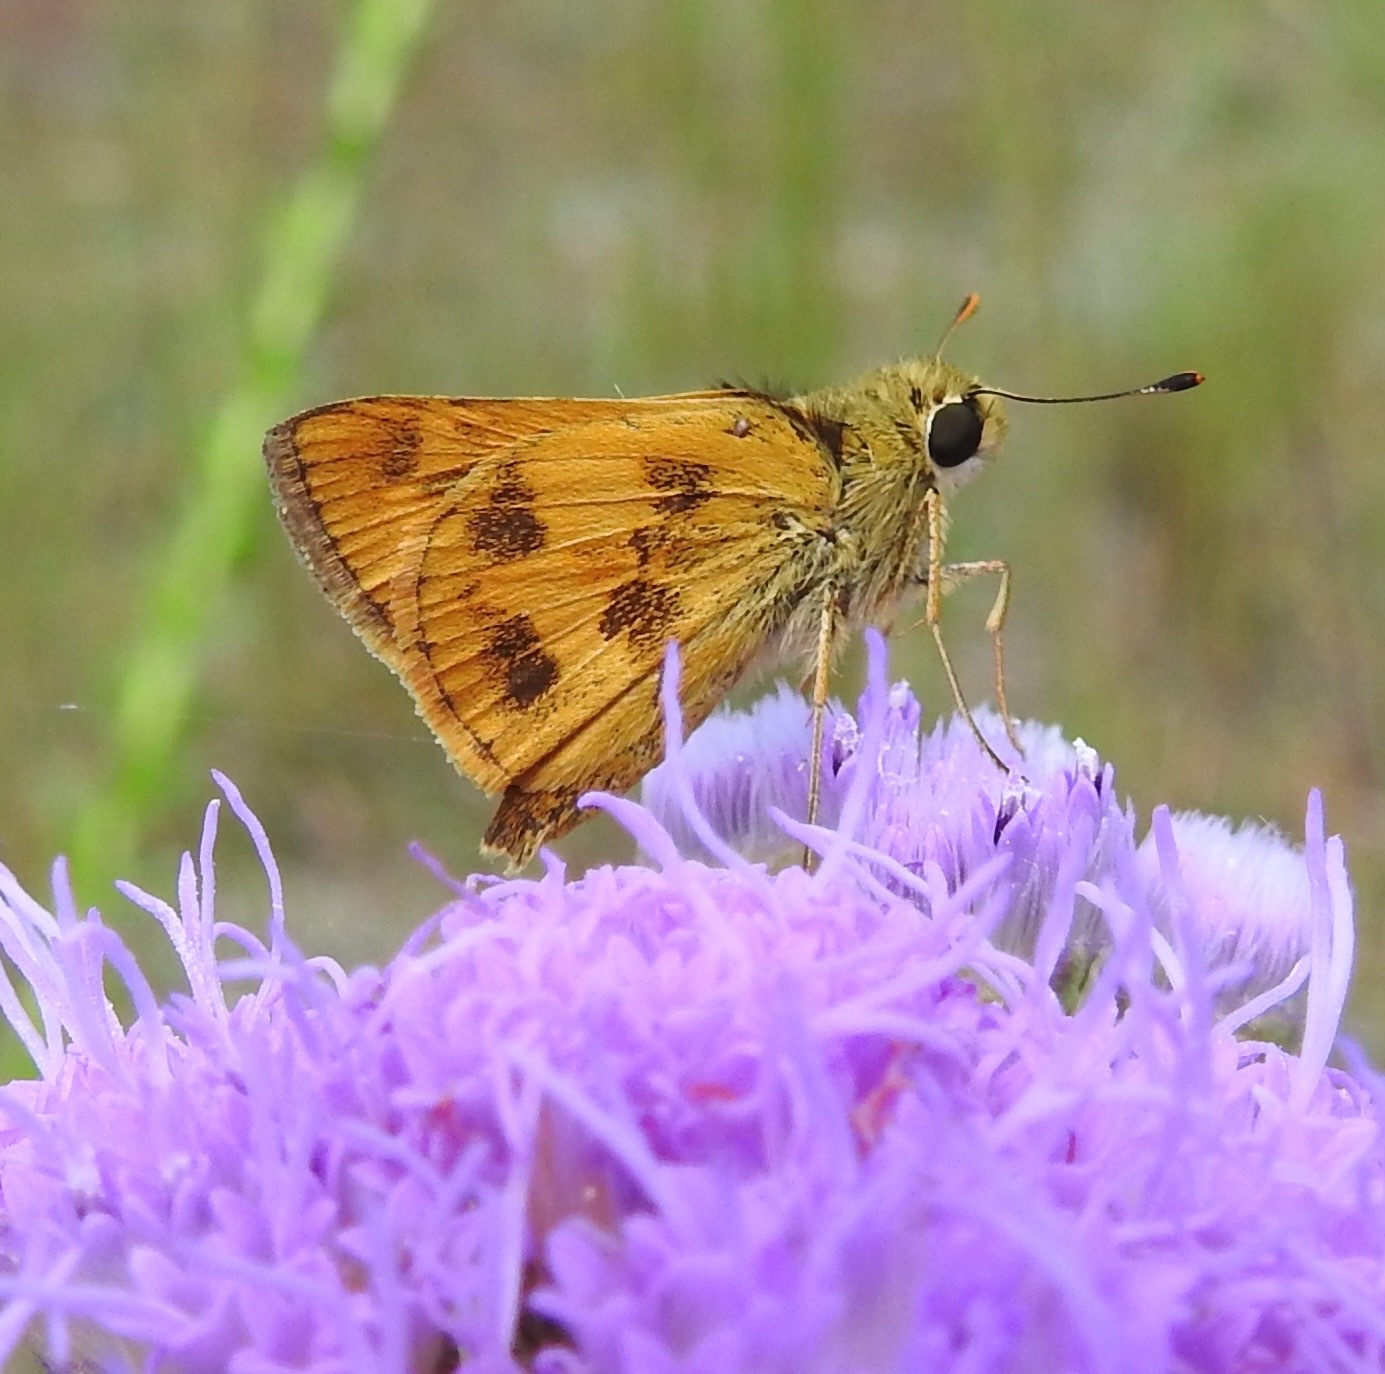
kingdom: Animalia
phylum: Arthropoda
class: Insecta
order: Lepidoptera
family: Hesperiidae
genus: Polites
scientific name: Polites vibex
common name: Whirlabout
